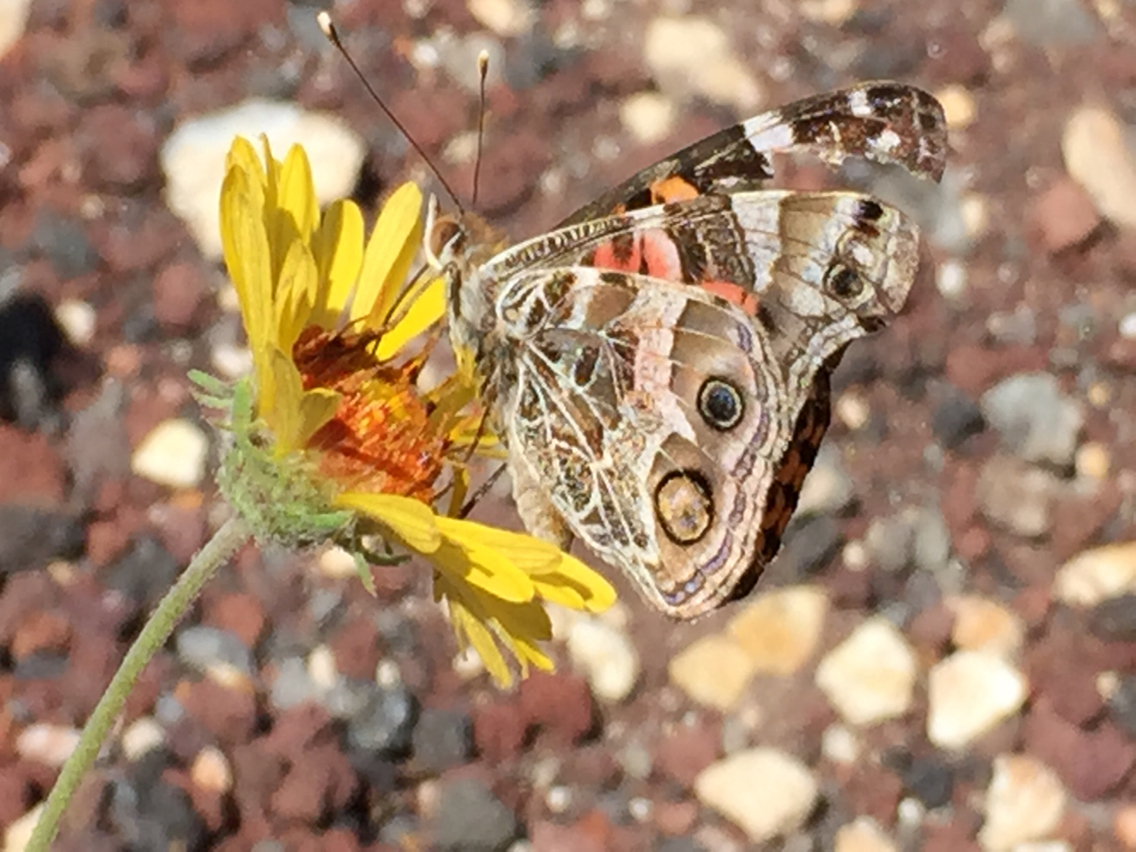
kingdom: Animalia
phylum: Arthropoda
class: Insecta
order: Lepidoptera
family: Nymphalidae
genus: Vanessa
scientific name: Vanessa virginiensis
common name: American lady
